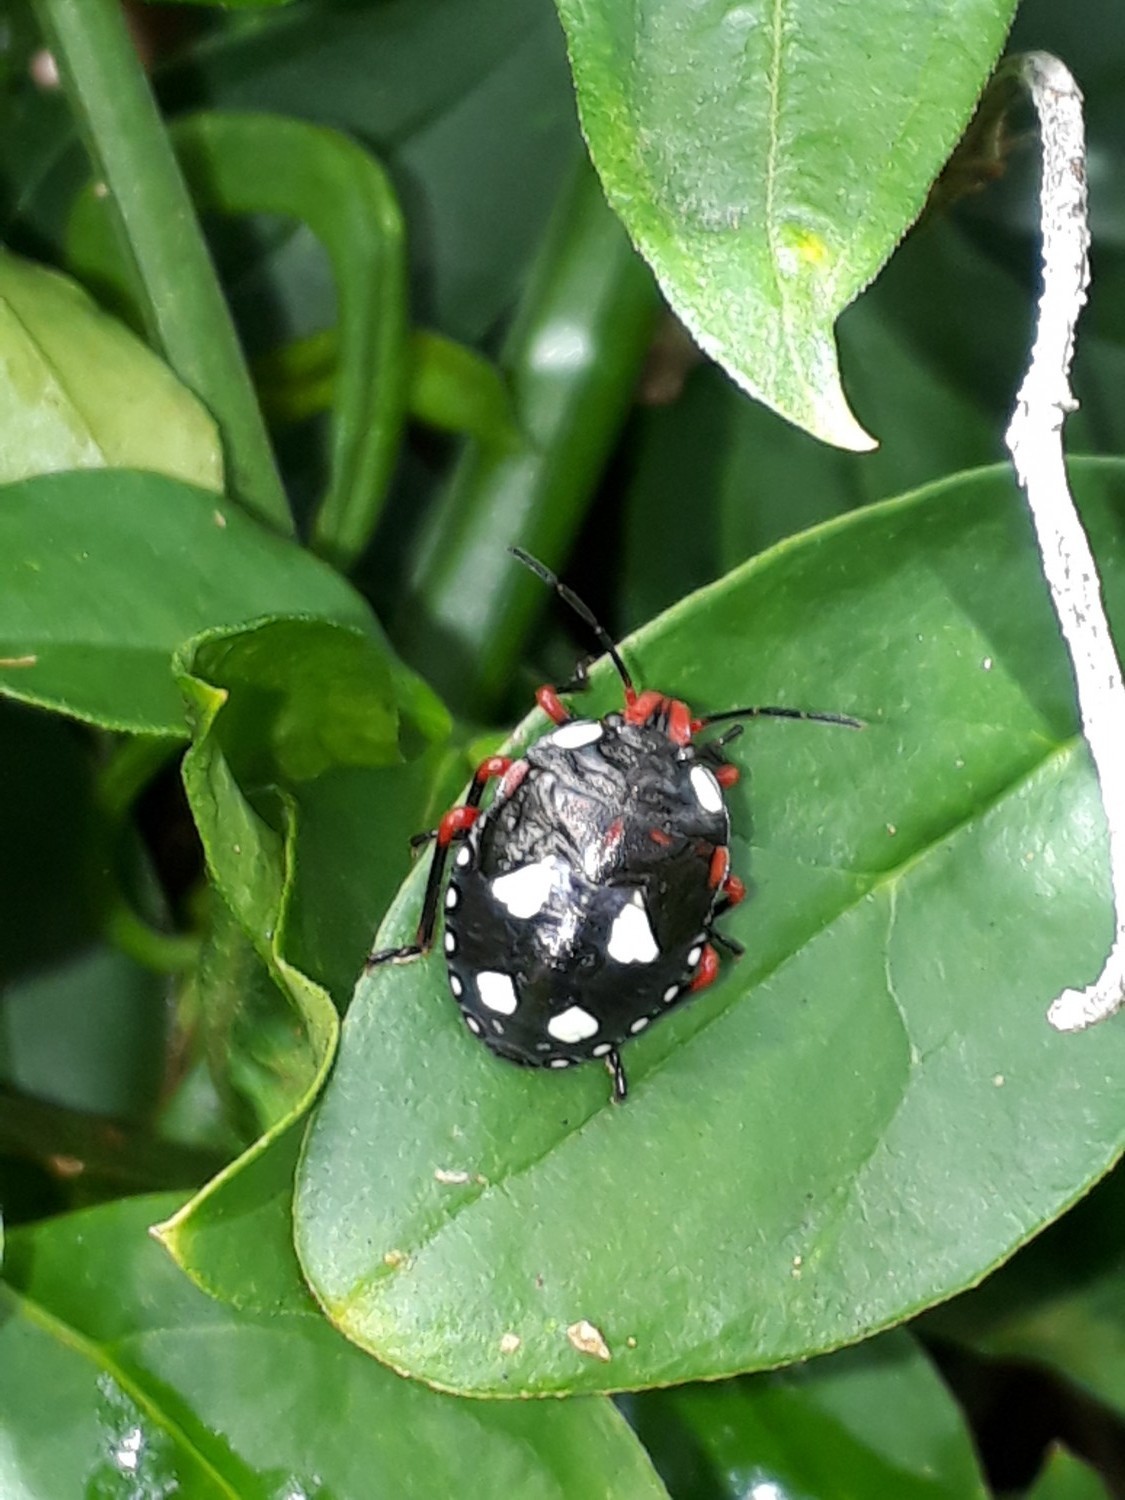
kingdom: Animalia
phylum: Arthropoda
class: Insecta
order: Hemiptera
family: Pentatomidae
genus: Chinavia
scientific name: Chinavia erythrocnemis
